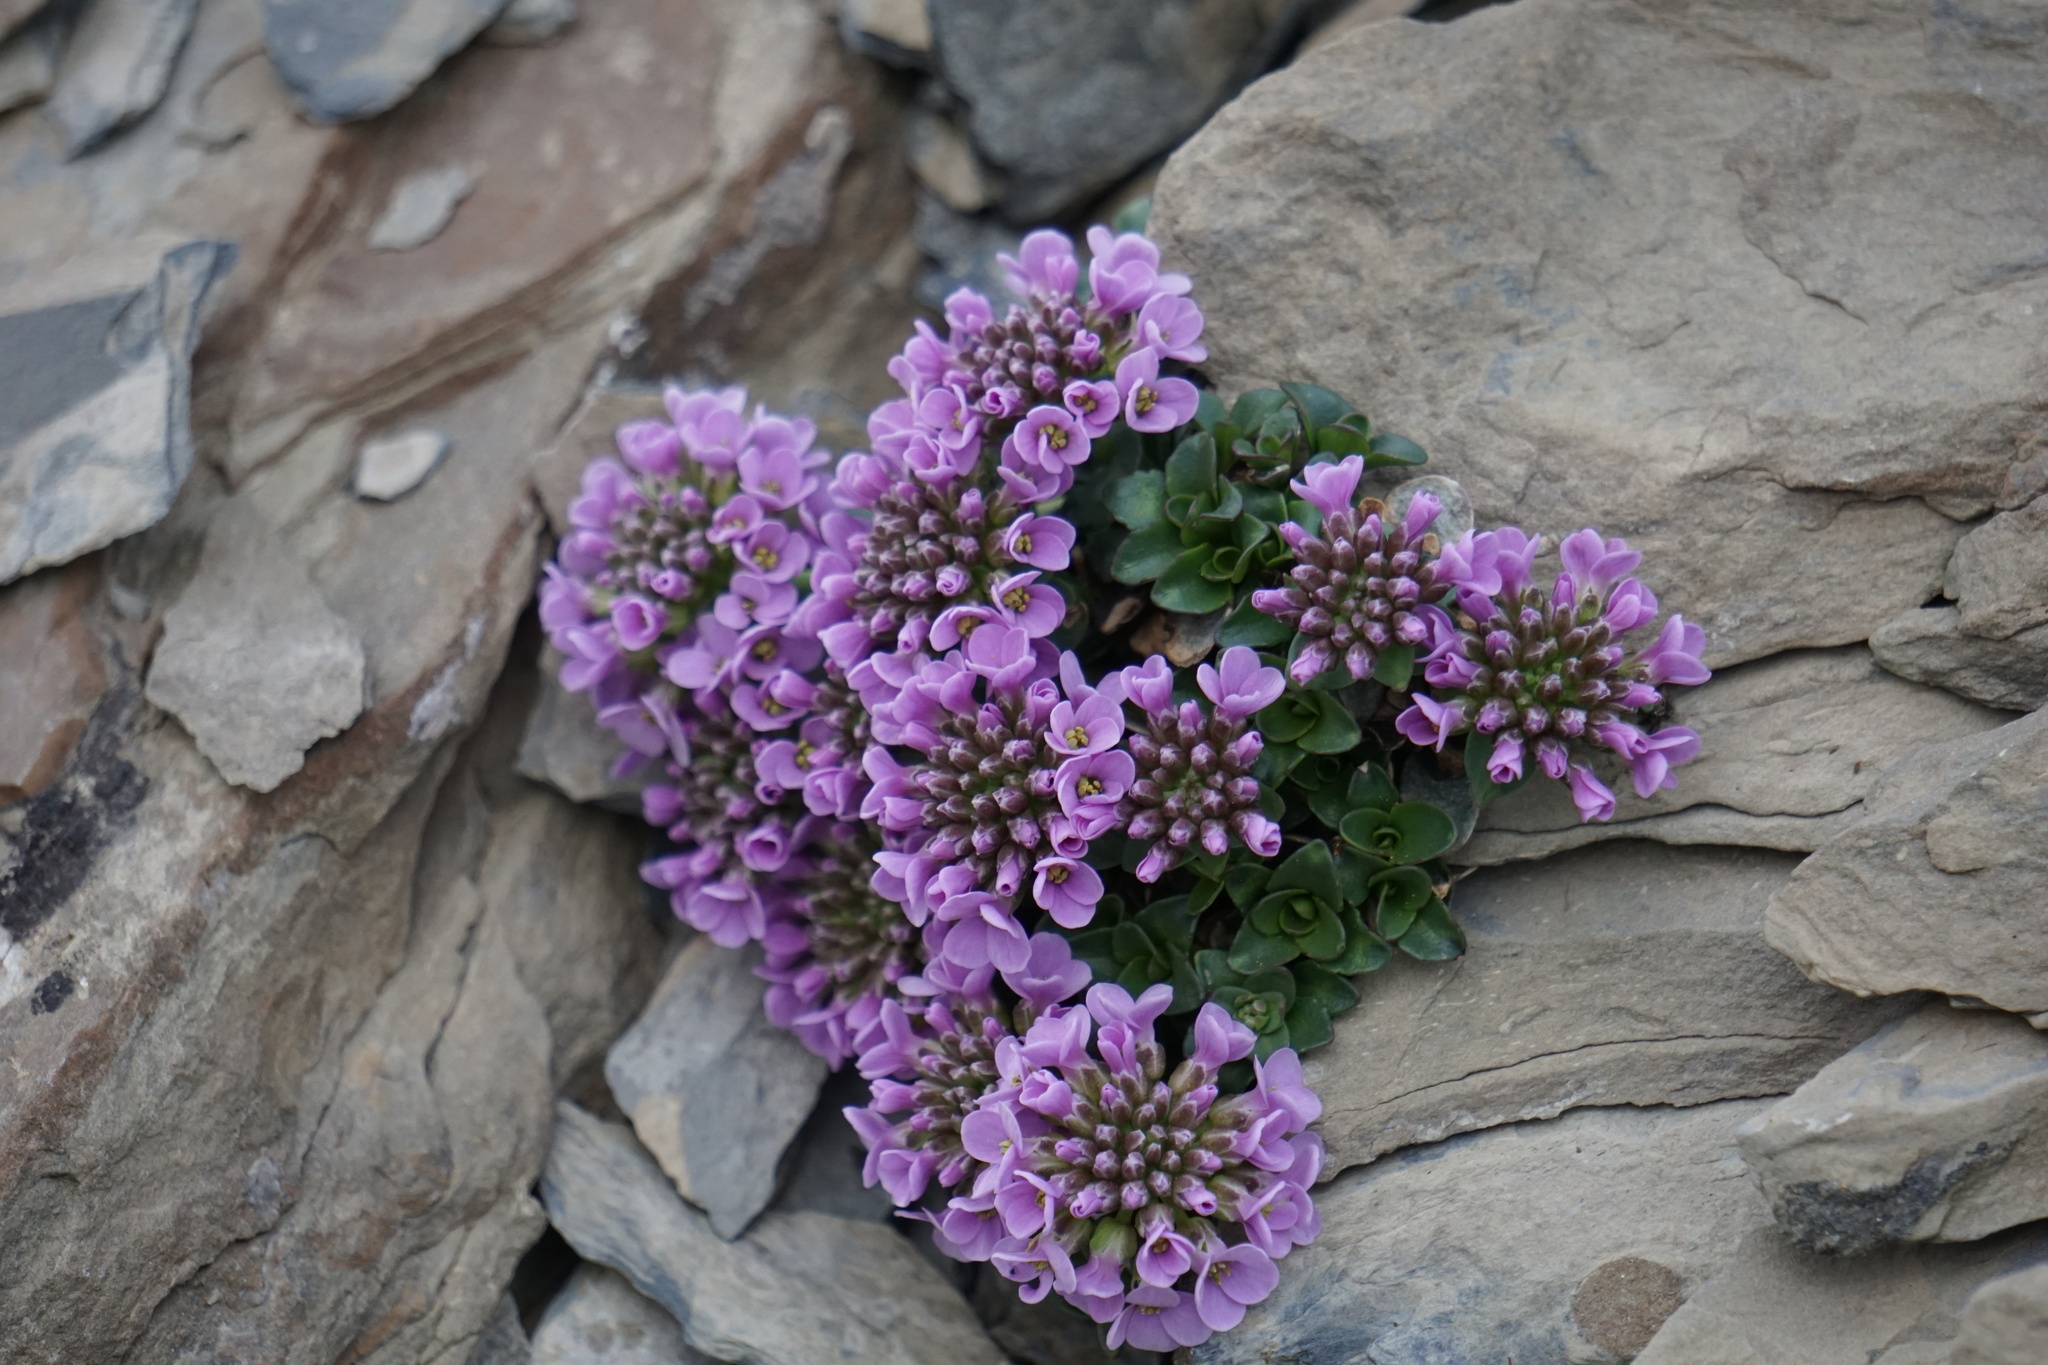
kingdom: Plantae
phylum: Tracheophyta
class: Magnoliopsida
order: Brassicales
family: Brassicaceae
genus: Noccaea
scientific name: Noccaea rotundifolia
